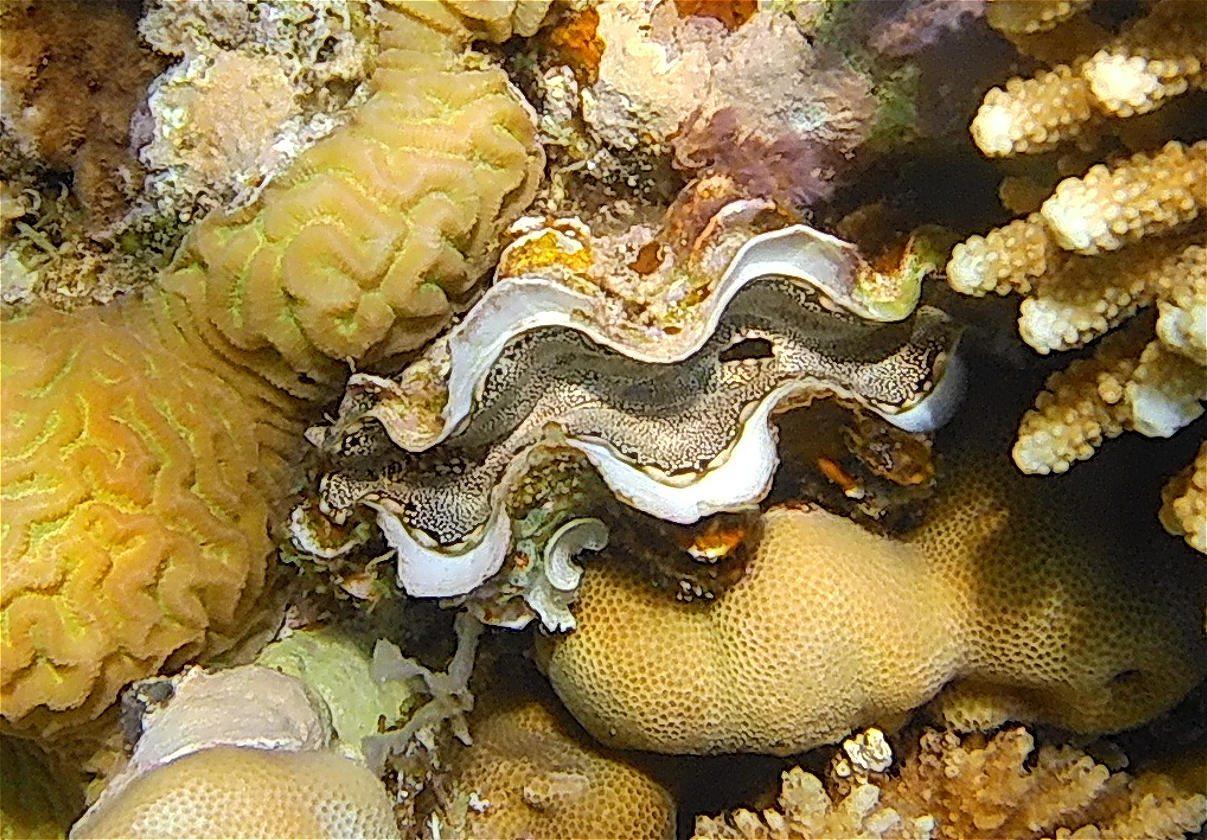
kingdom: Animalia
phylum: Mollusca
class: Bivalvia
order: Cardiida
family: Cardiidae
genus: Tridacna
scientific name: Tridacna maxima
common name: Small giant clam
